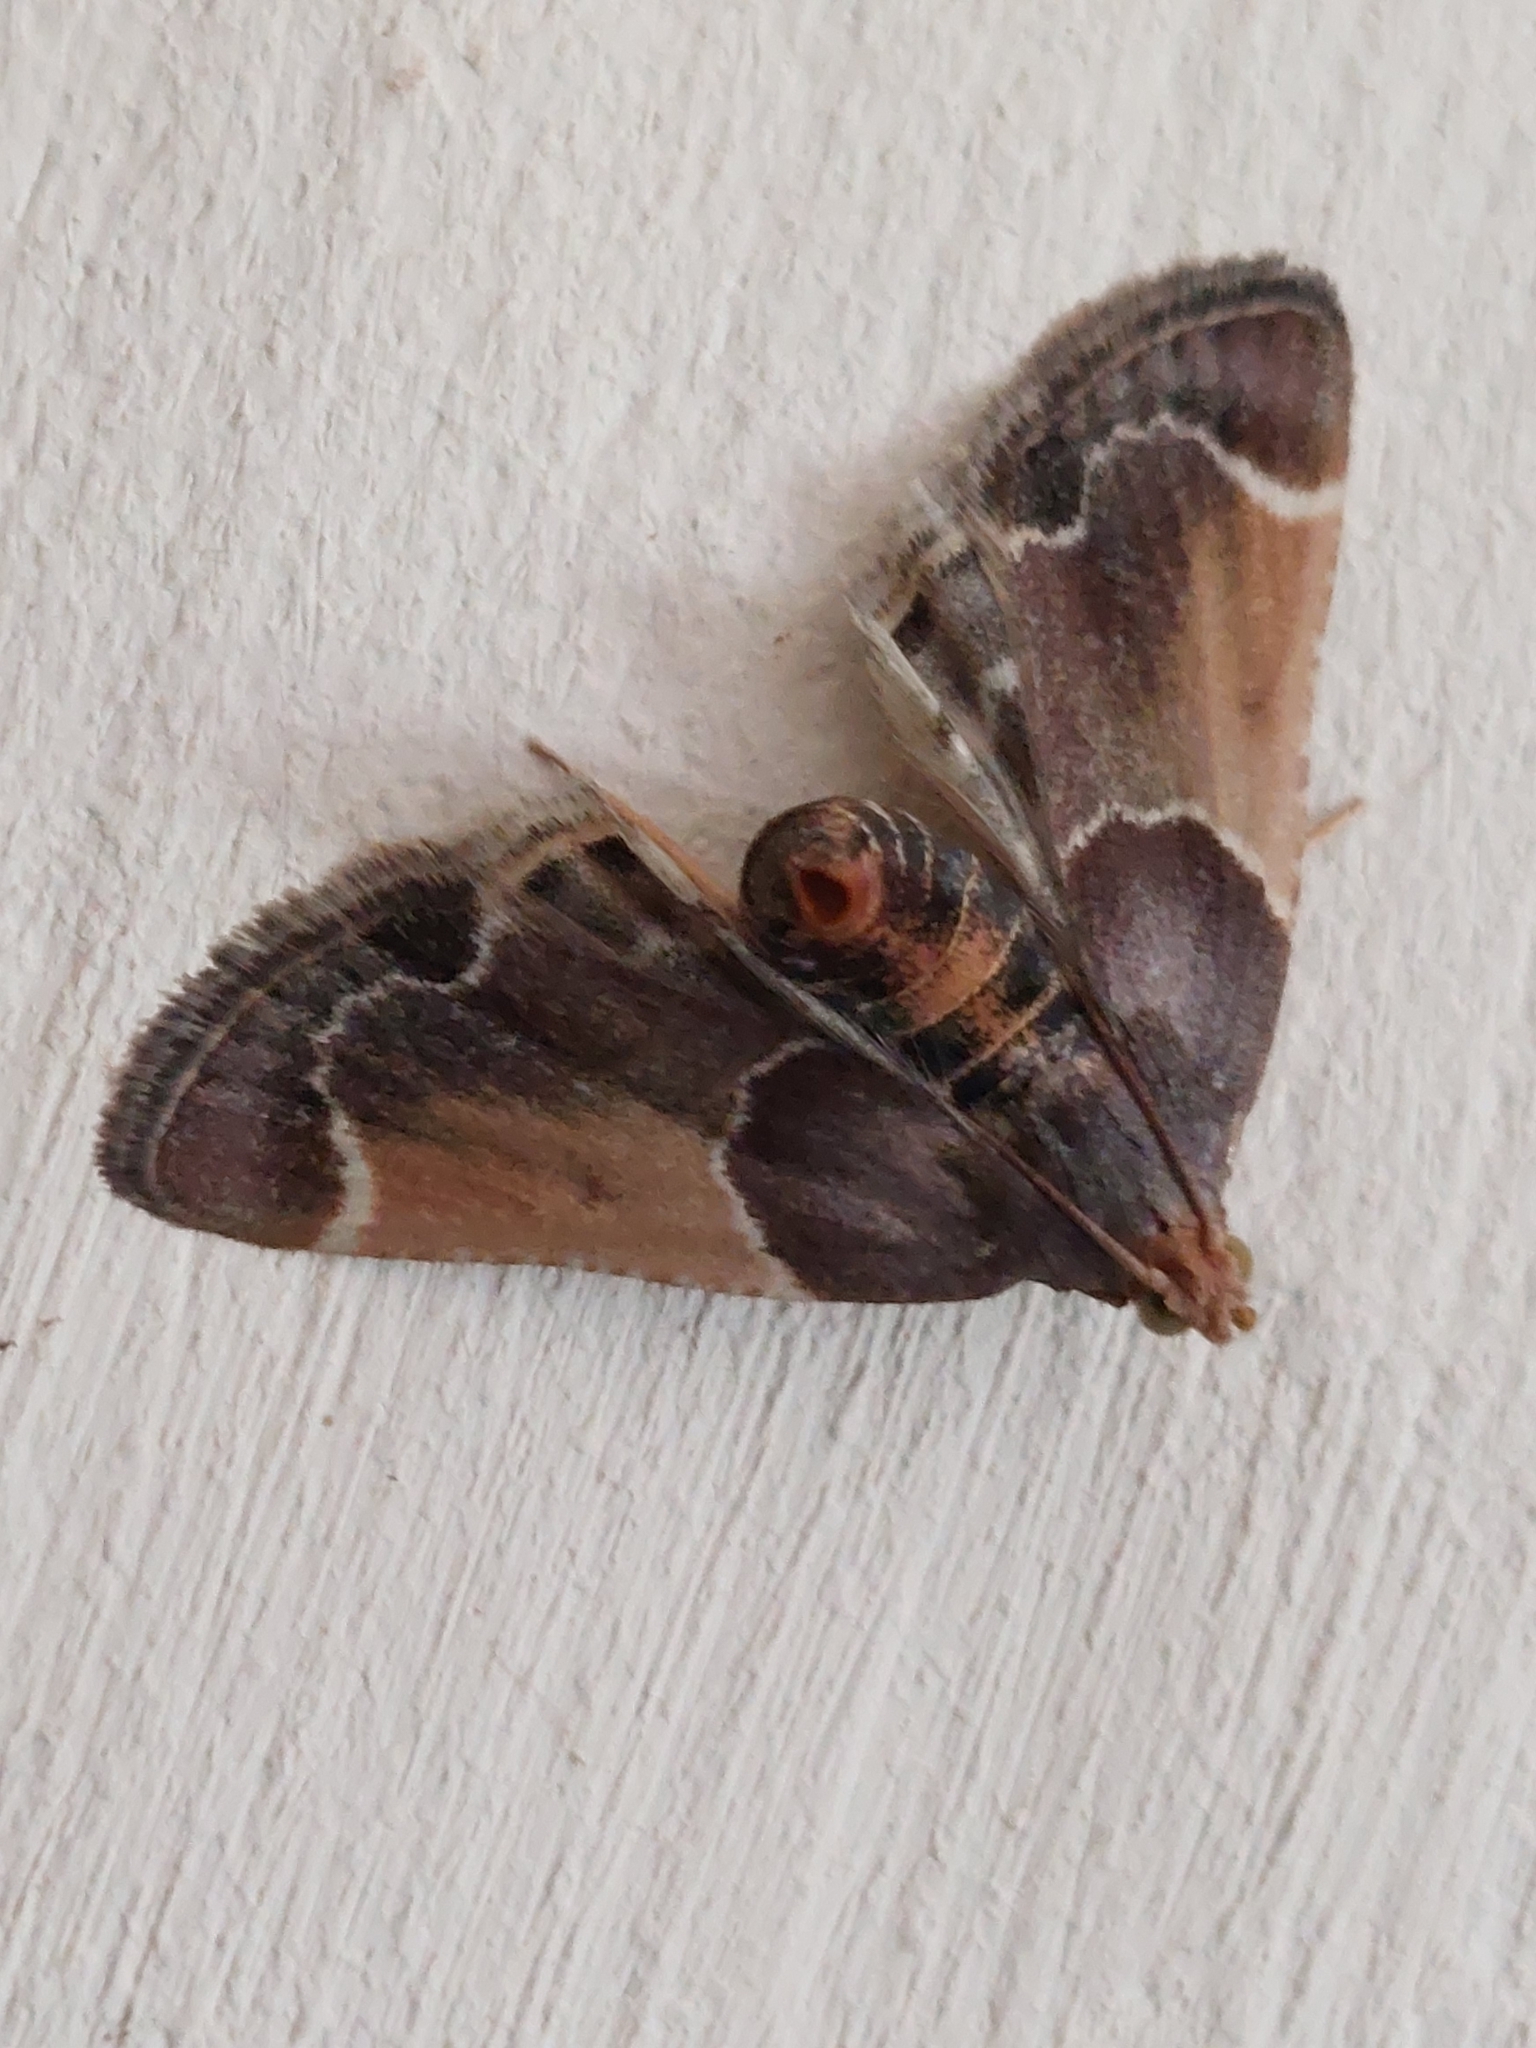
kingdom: Animalia
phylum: Arthropoda
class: Insecta
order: Lepidoptera
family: Pyralidae
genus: Pyralis
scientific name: Pyralis farinalis
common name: Meal moth
